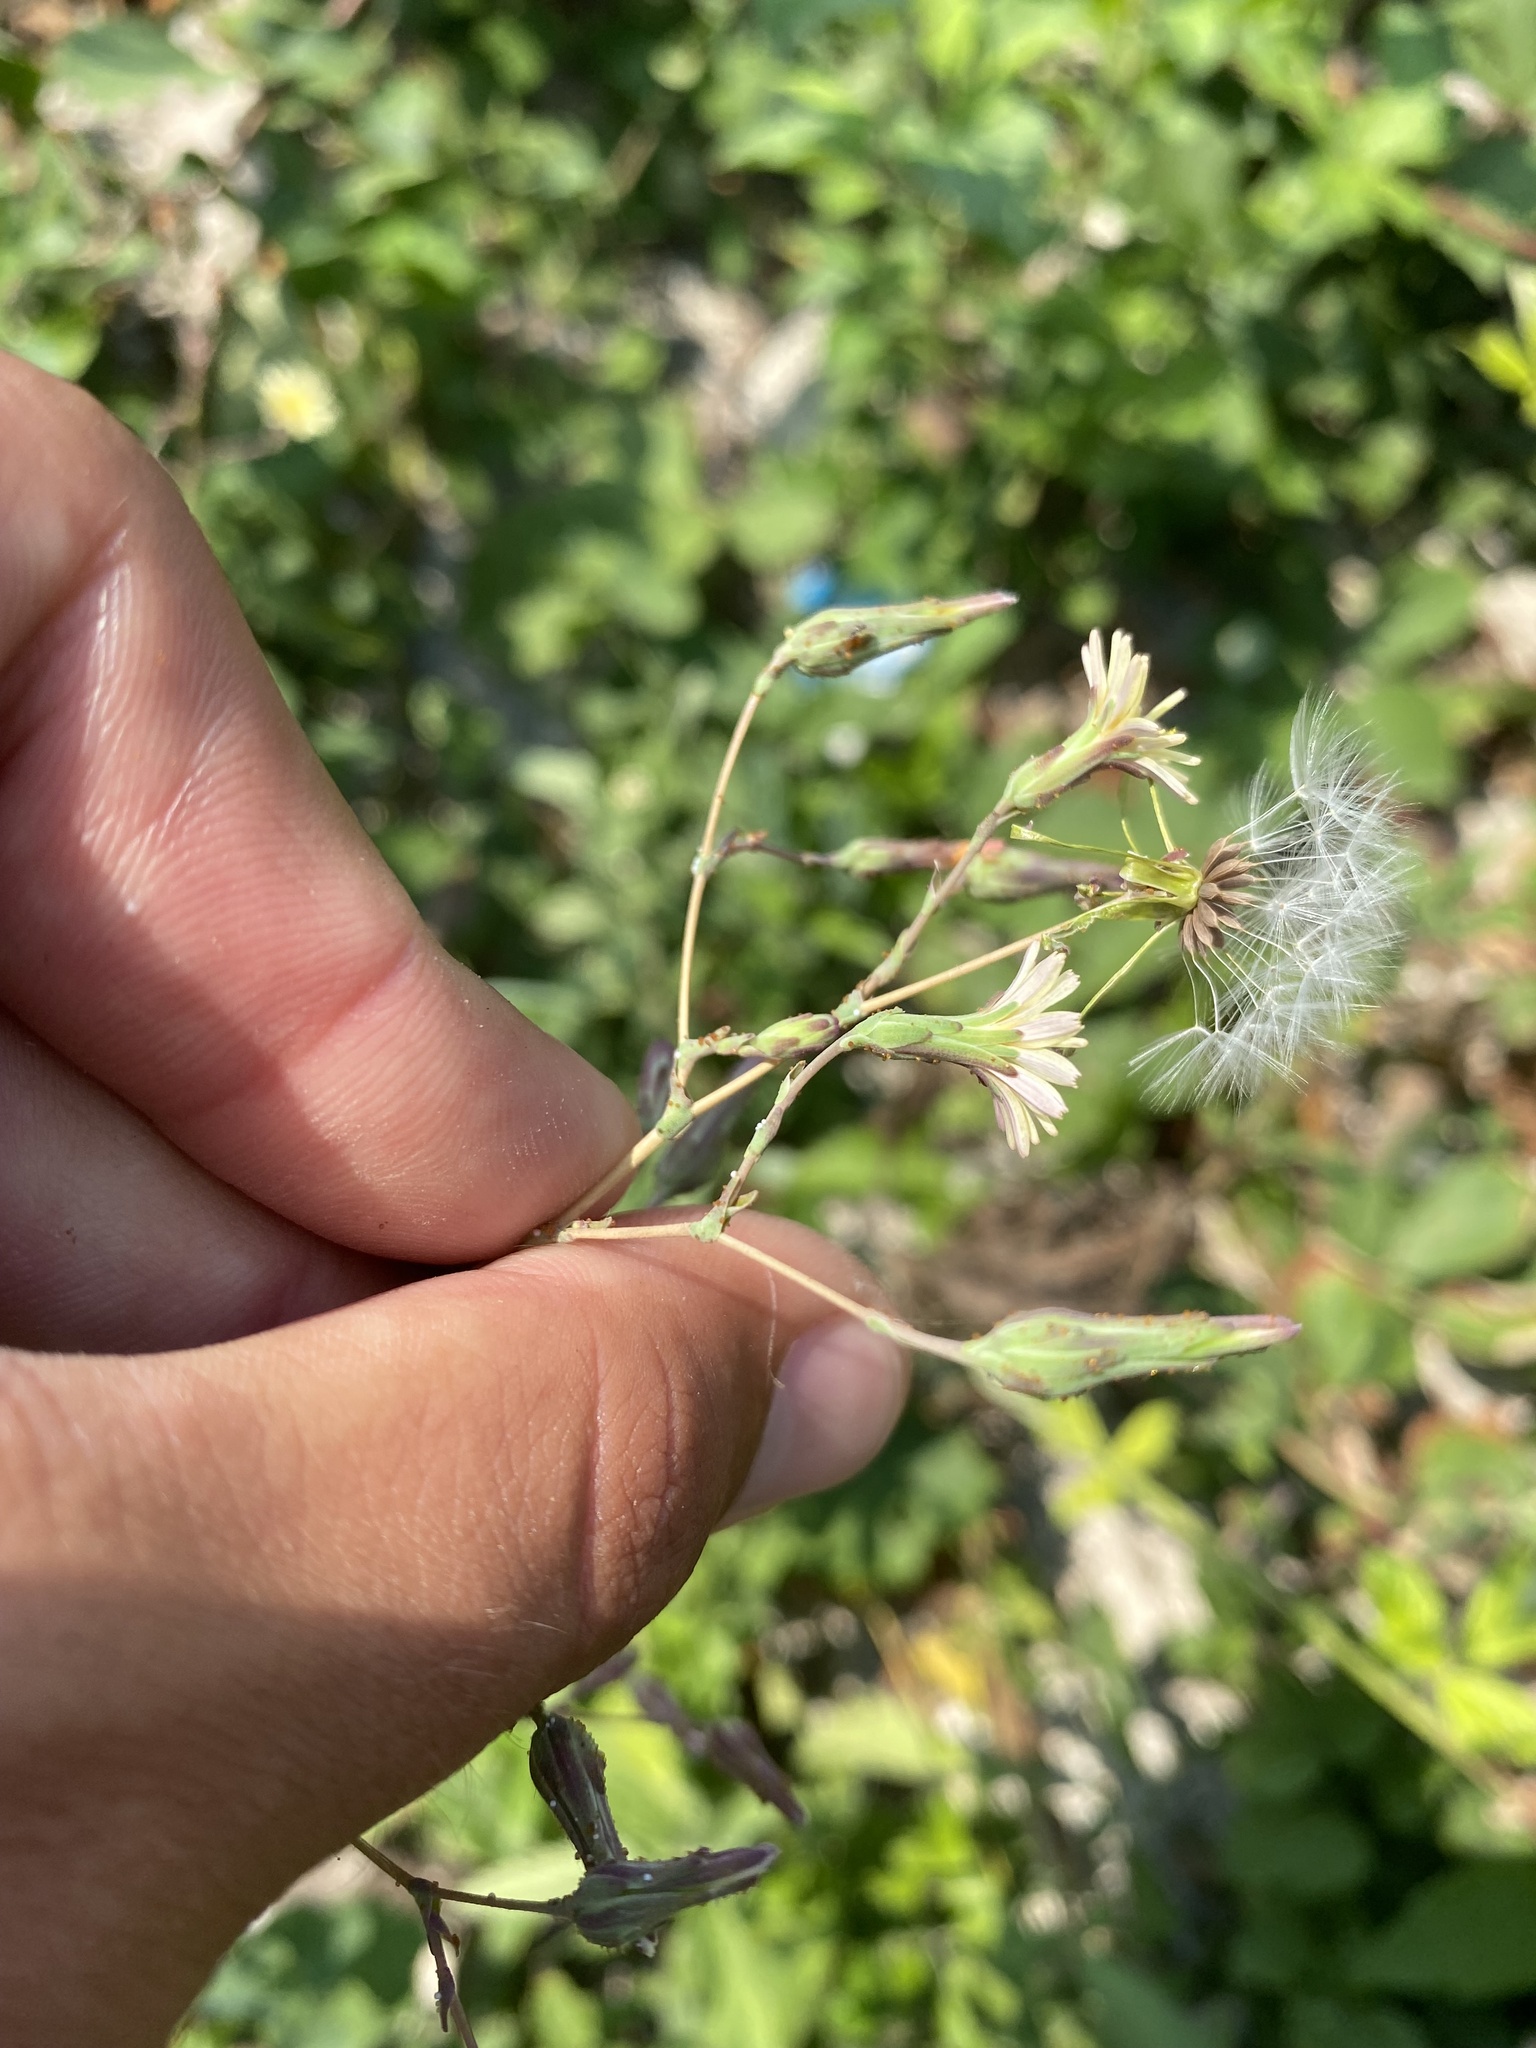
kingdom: Plantae
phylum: Tracheophyta
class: Magnoliopsida
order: Asterales
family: Asteraceae
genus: Lactuca
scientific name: Lactuca serriola
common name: Prickly lettuce
